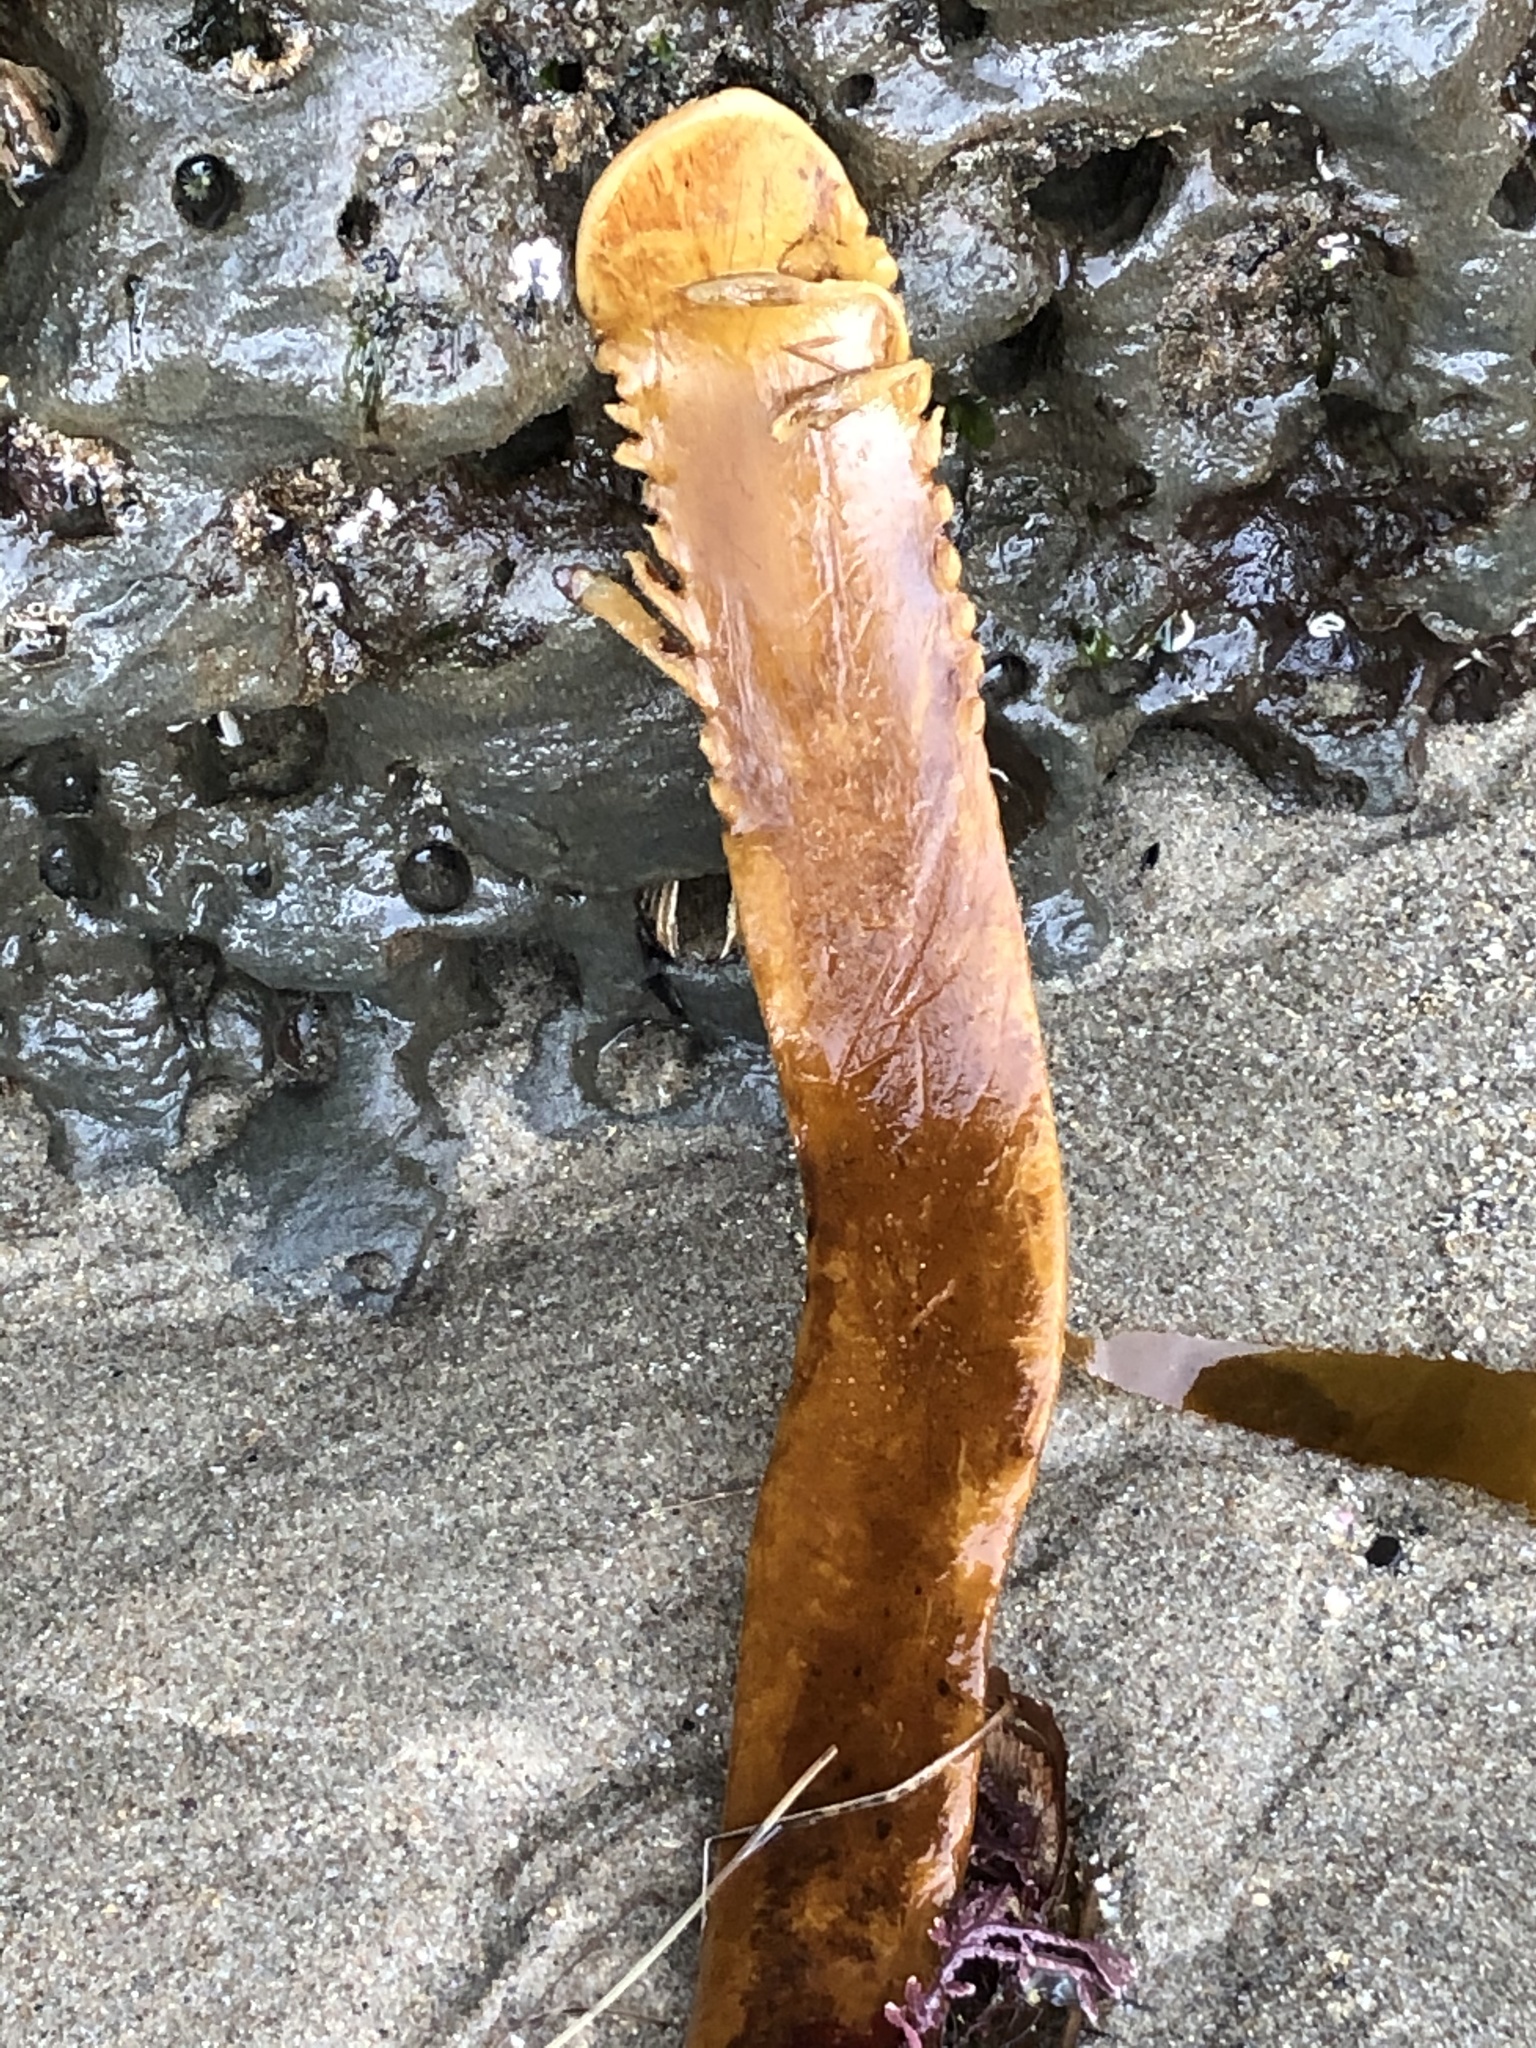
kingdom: Chromista
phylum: Ochrophyta
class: Phaeophyceae
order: Laminariales
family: Alariaceae
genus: Pterygophora
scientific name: Pterygophora californica
